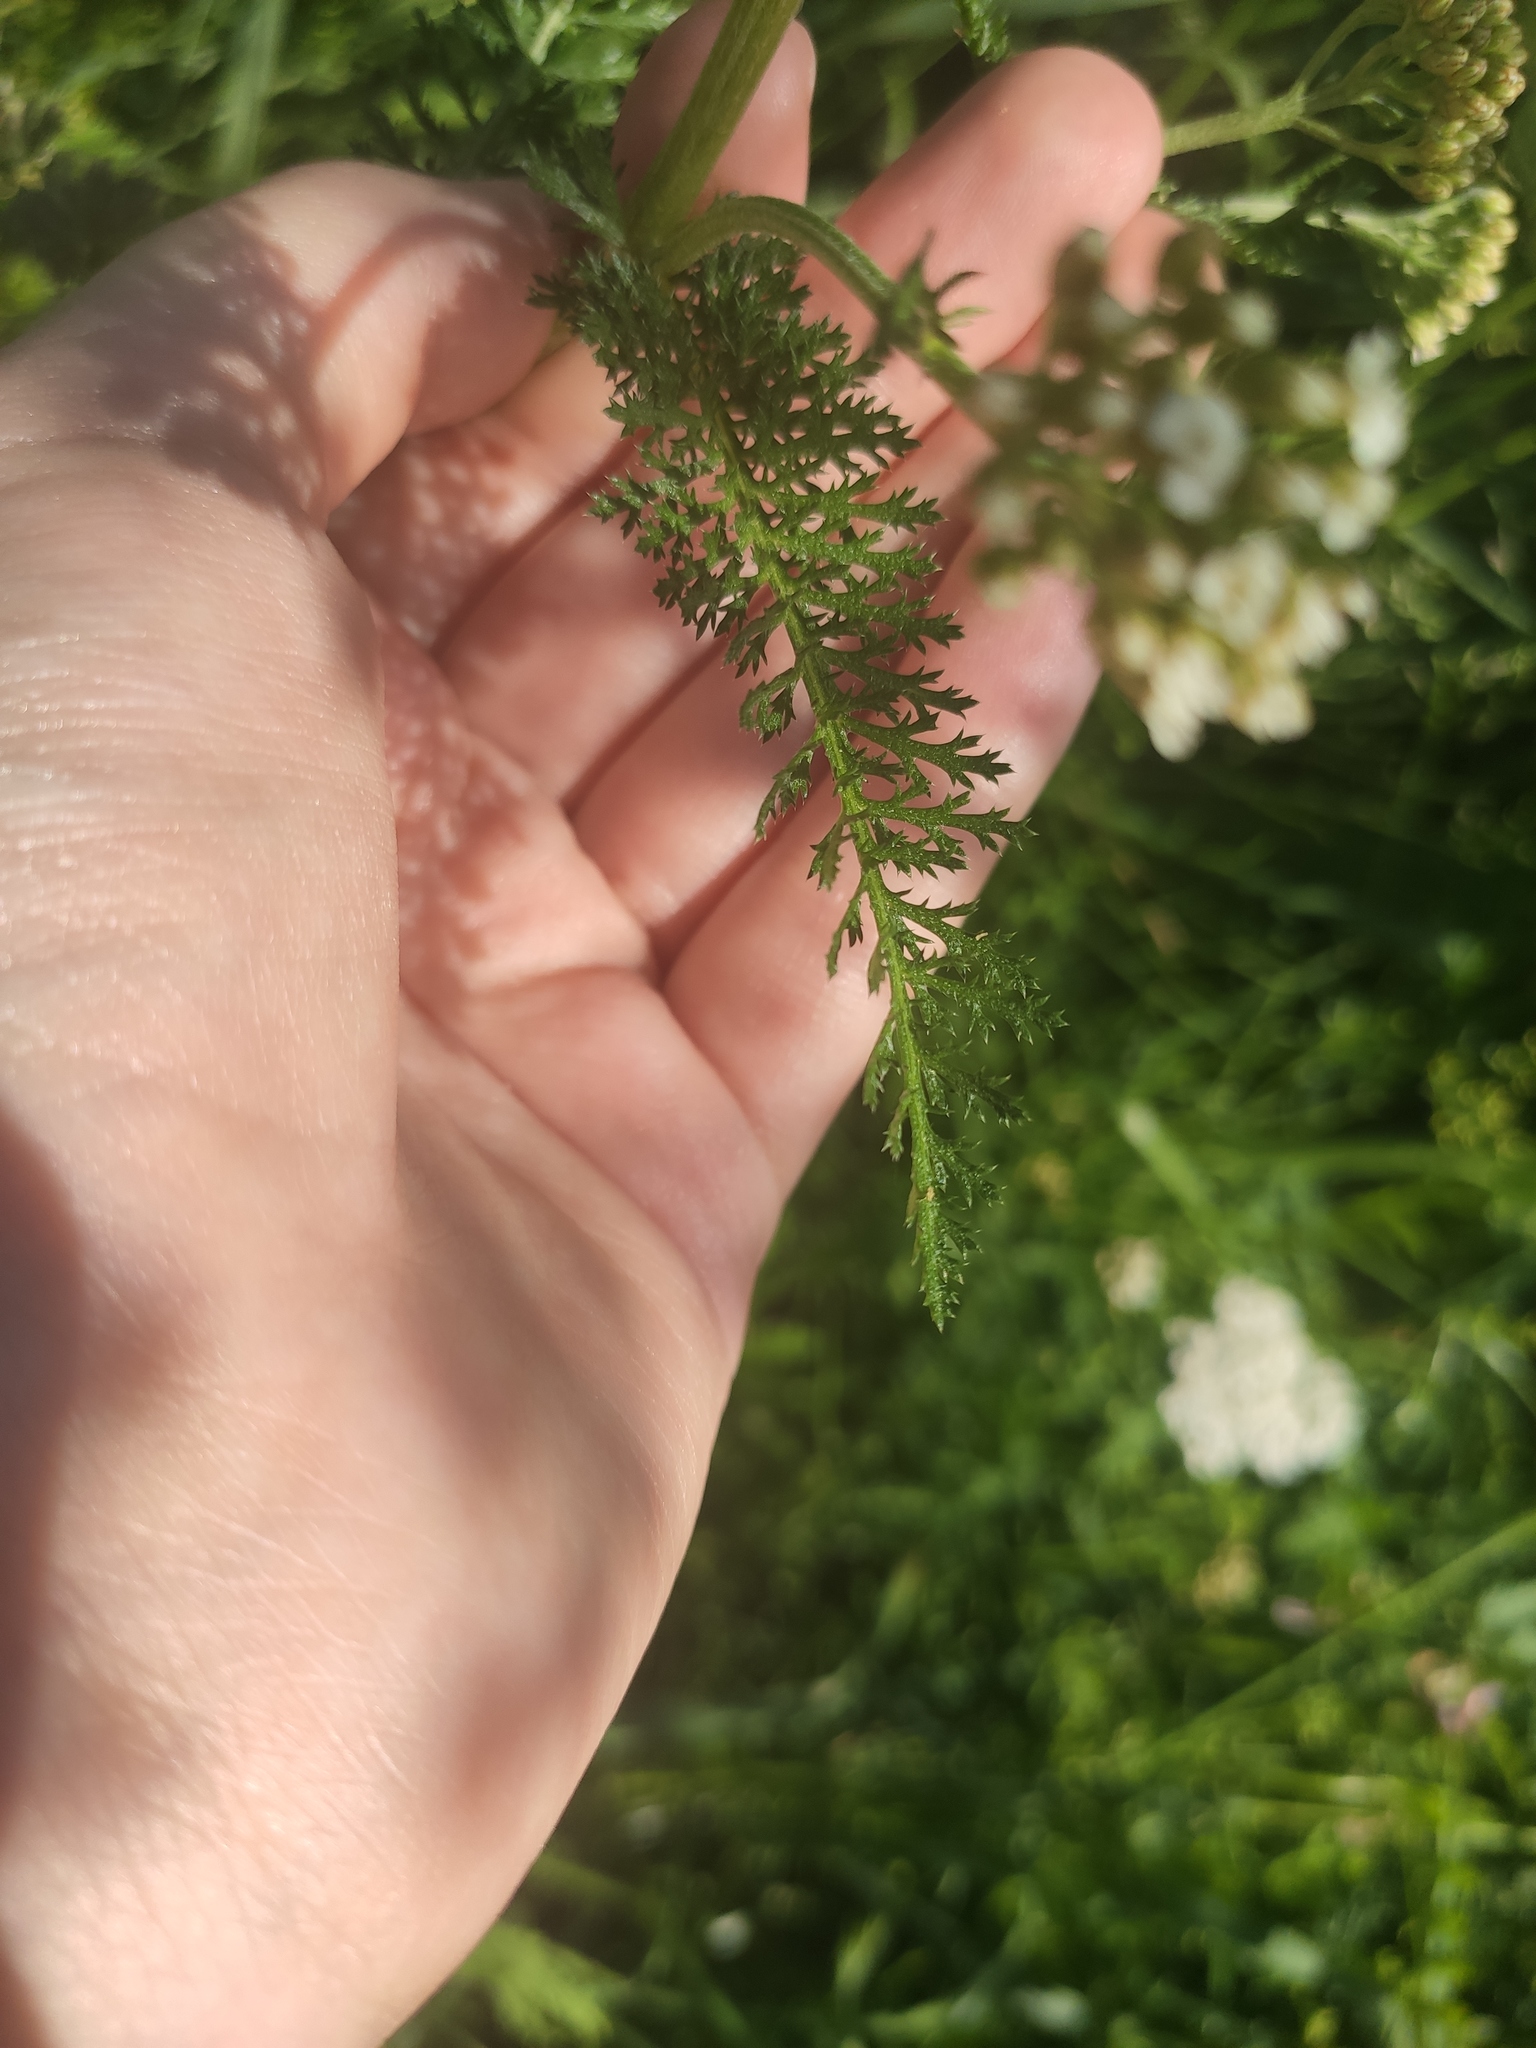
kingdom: Plantae
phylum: Tracheophyta
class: Magnoliopsida
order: Asterales
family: Asteraceae
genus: Achillea
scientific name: Achillea millefolium
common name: Yarrow
